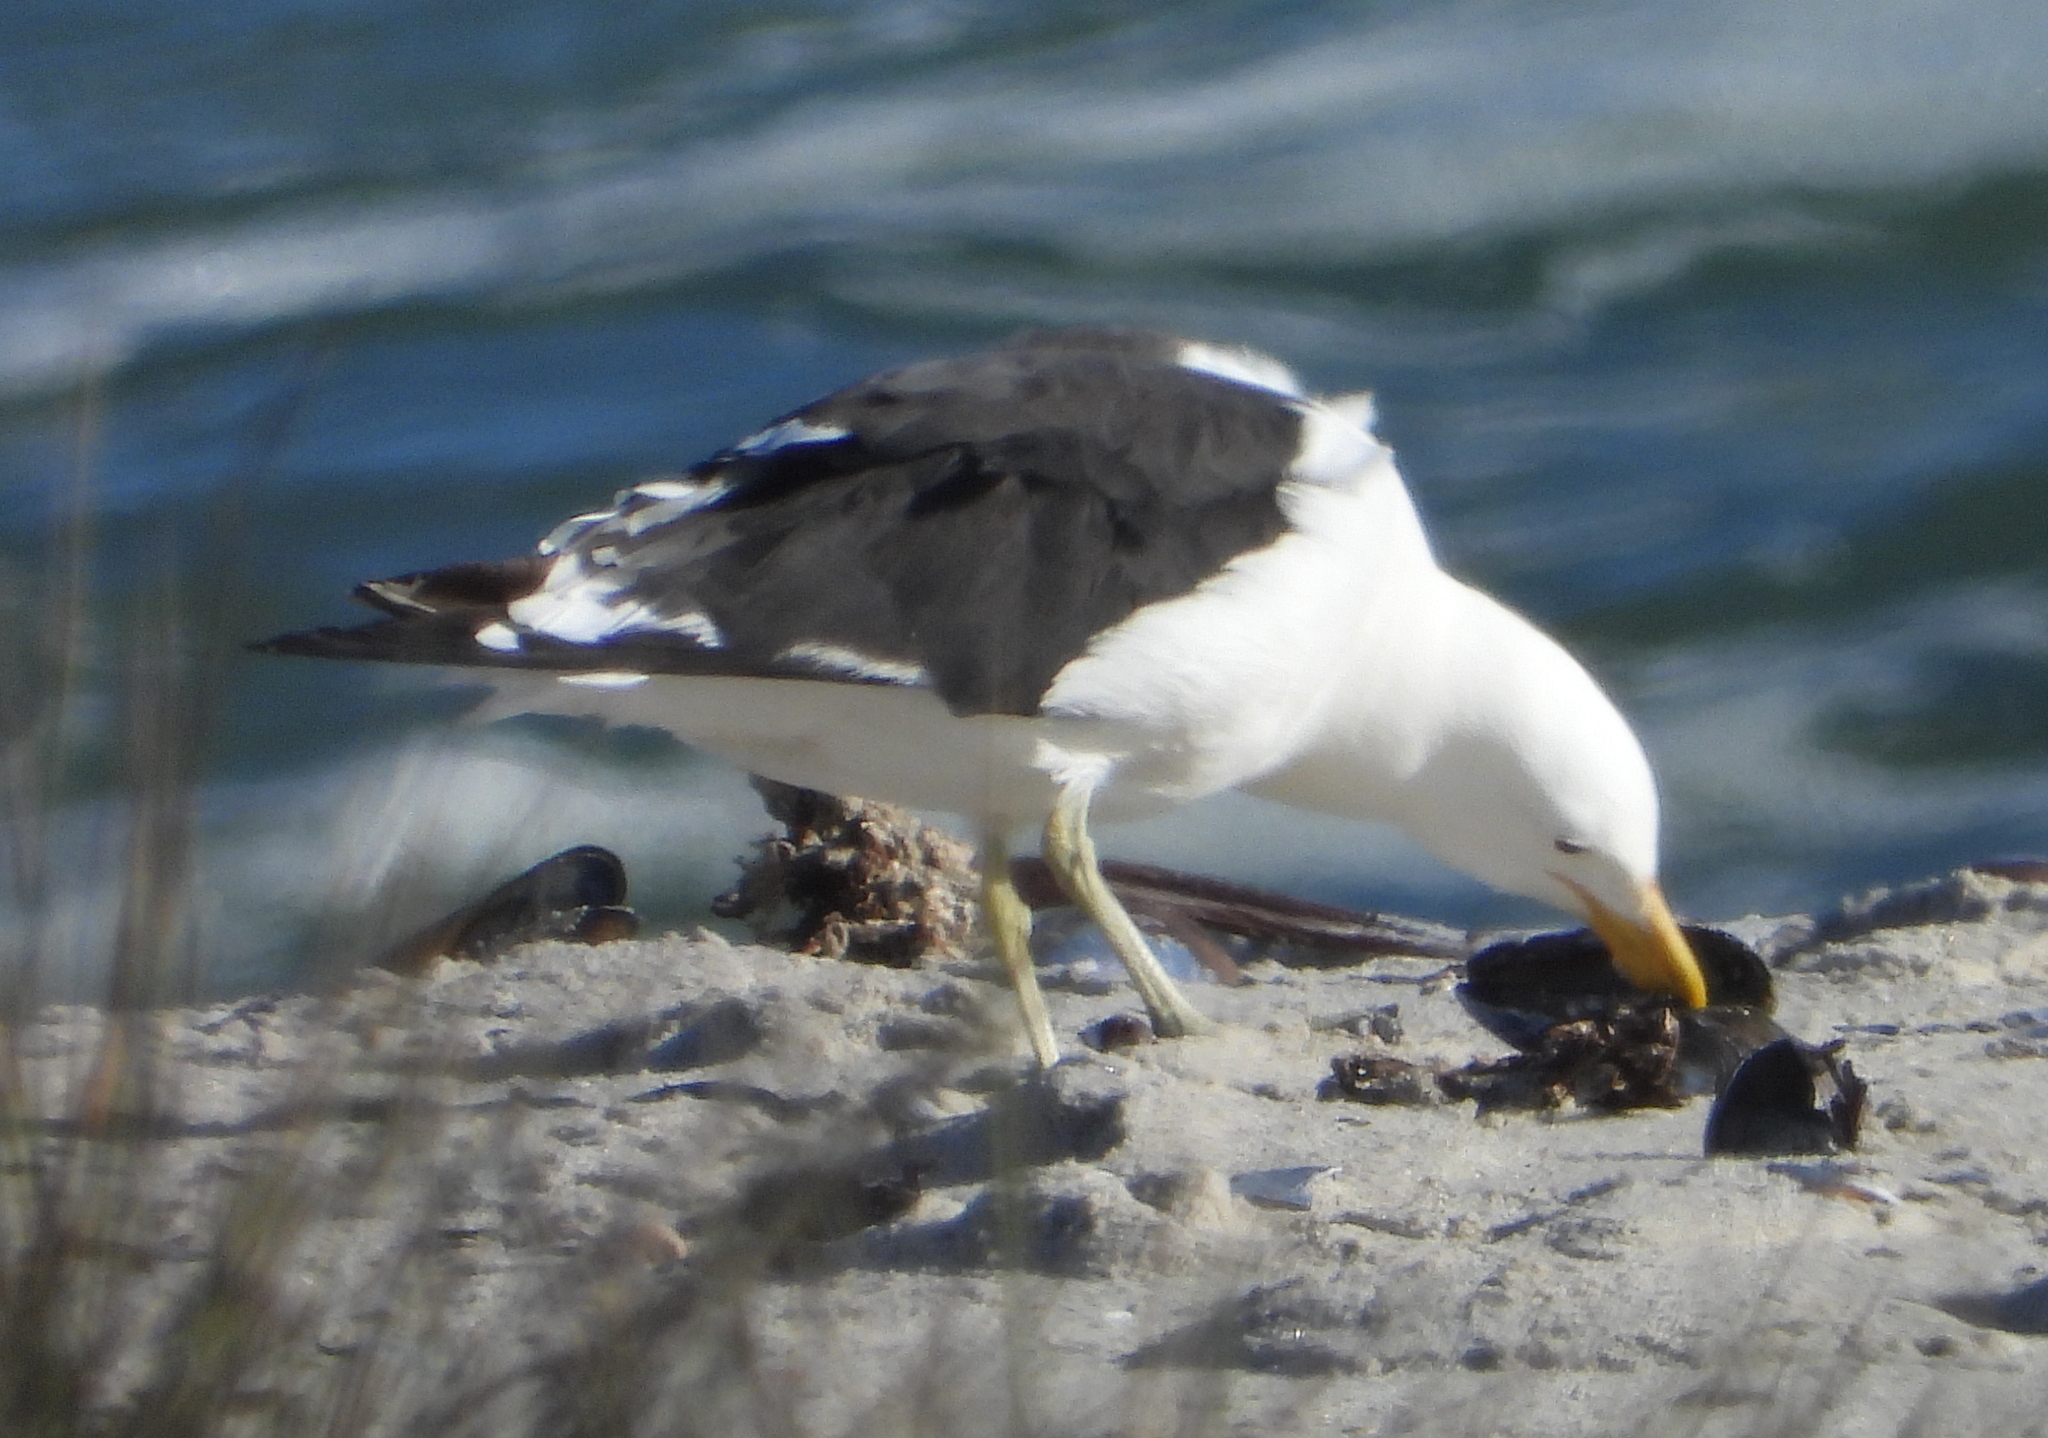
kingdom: Animalia
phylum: Chordata
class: Aves
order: Charadriiformes
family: Laridae
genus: Larus
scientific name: Larus dominicanus
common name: Kelp gull
